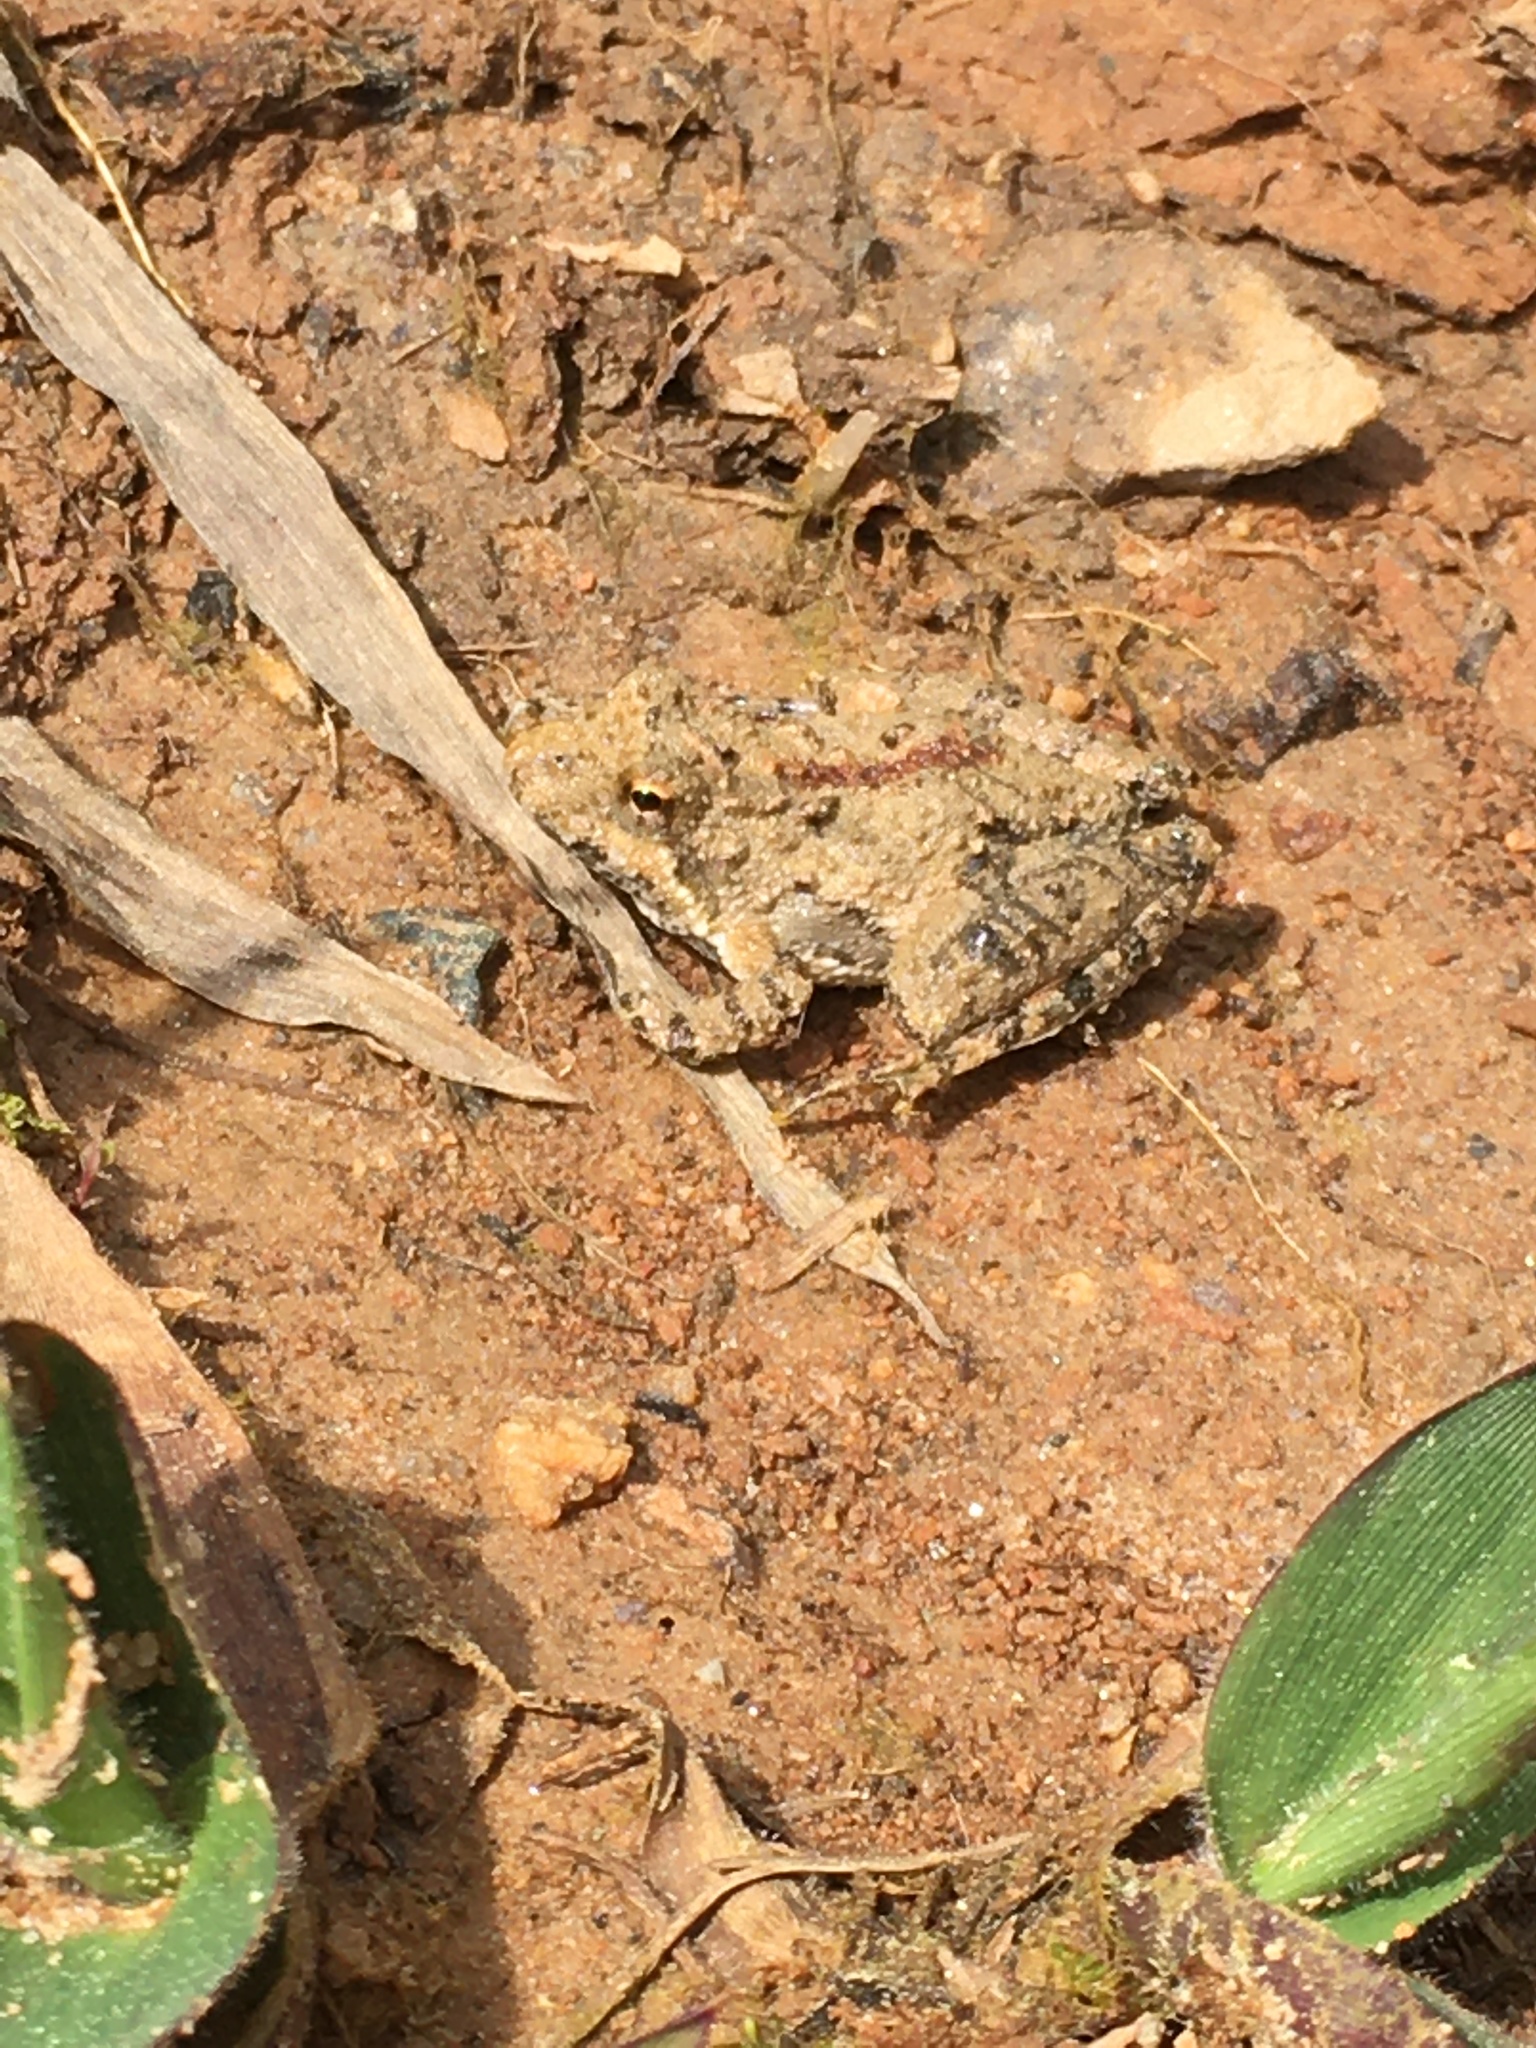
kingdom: Animalia
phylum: Chordata
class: Amphibia
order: Anura
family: Hylidae
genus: Acris
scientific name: Acris crepitans
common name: Northern cricket frog
